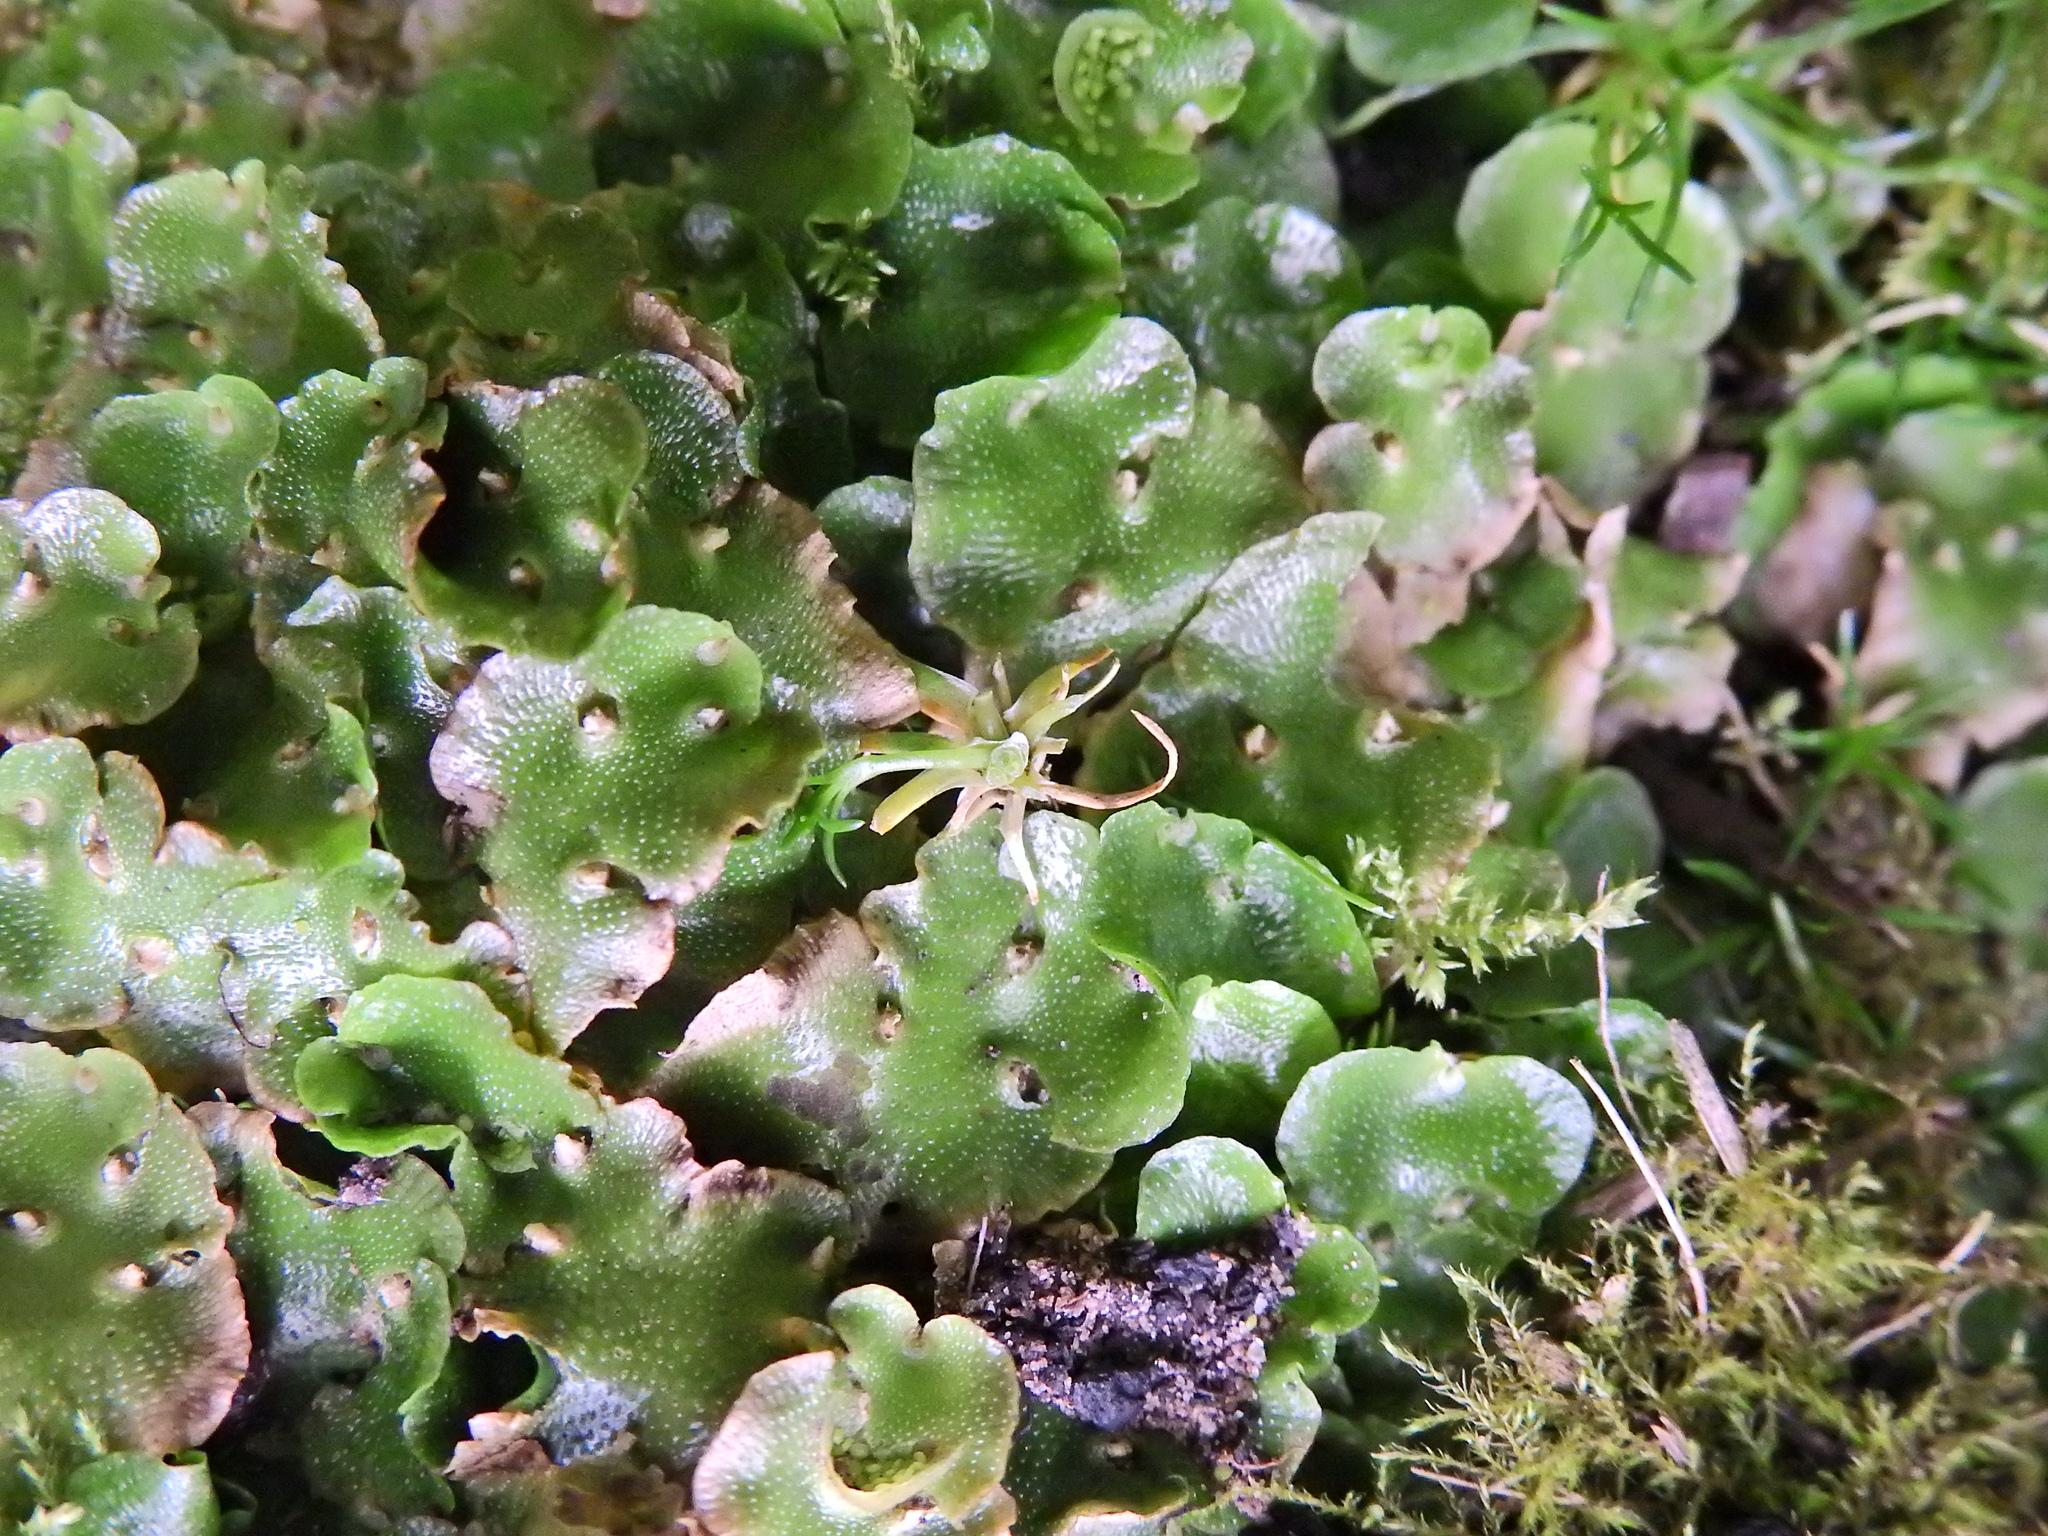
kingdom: Plantae
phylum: Marchantiophyta
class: Marchantiopsida
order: Lunulariales
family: Lunulariaceae
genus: Lunularia
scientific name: Lunularia cruciata
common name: Crescent-cup liverwort
